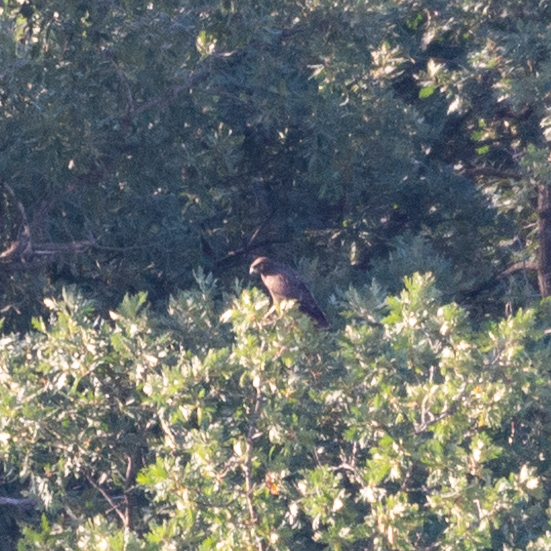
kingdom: Animalia
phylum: Chordata
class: Aves
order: Accipitriformes
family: Accipitridae
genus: Buteo
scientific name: Buteo buteo
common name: Common buzzard
